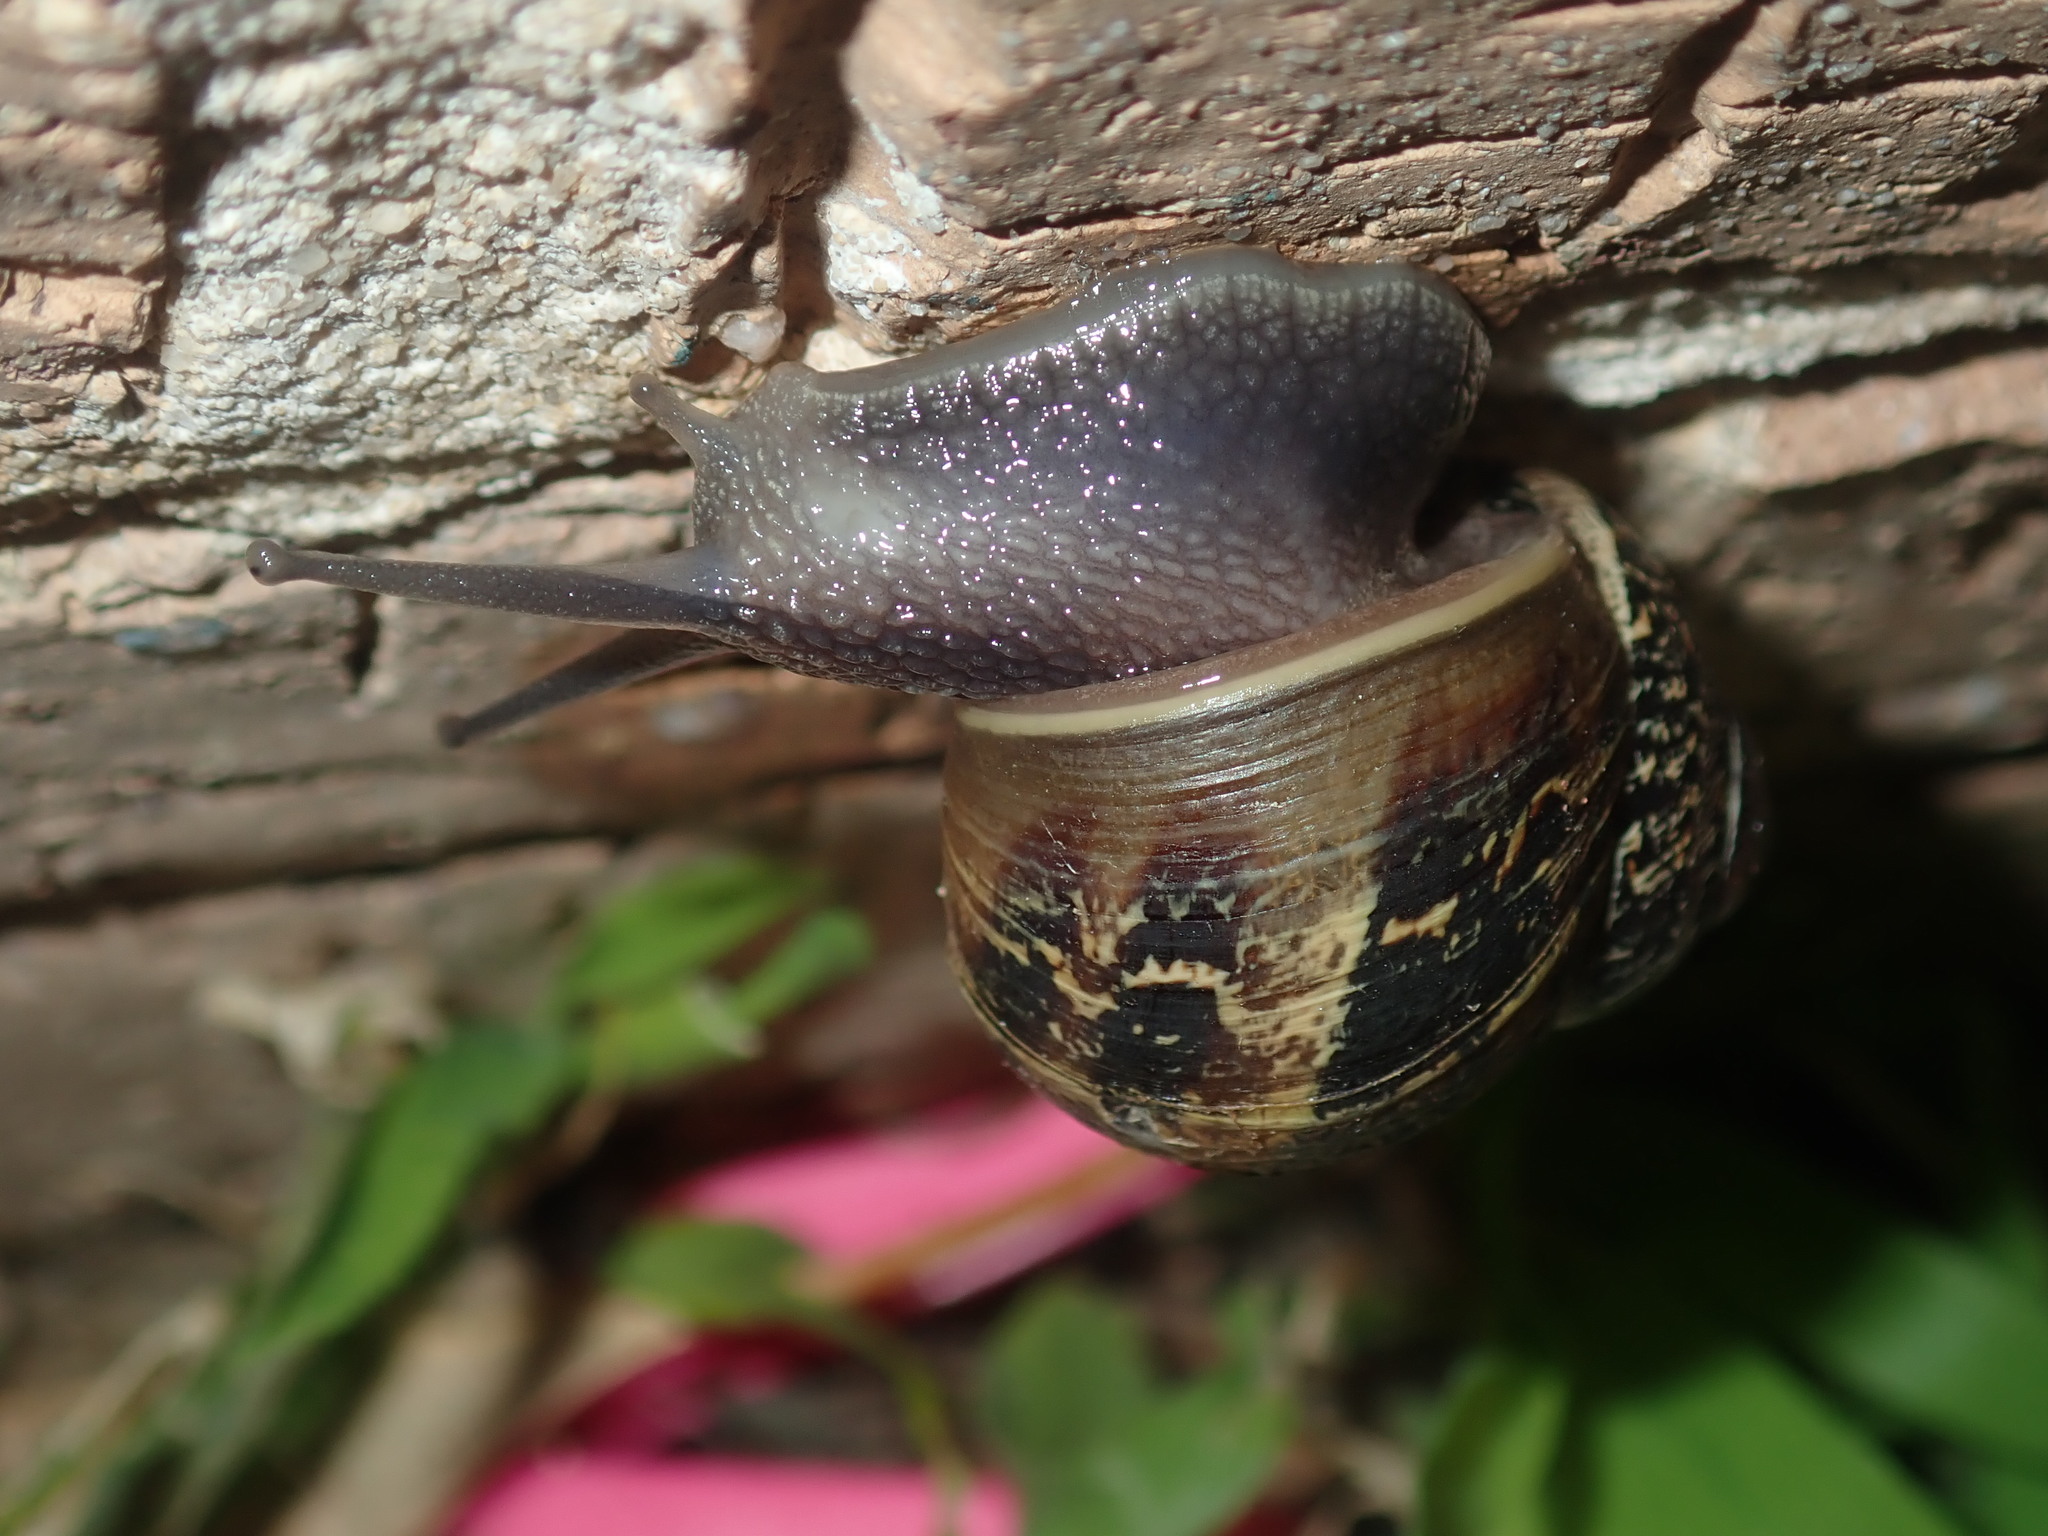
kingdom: Animalia
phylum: Mollusca
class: Gastropoda
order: Stylommatophora
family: Helicidae
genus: Cornu
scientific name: Cornu aspersum
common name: Brown garden snail
